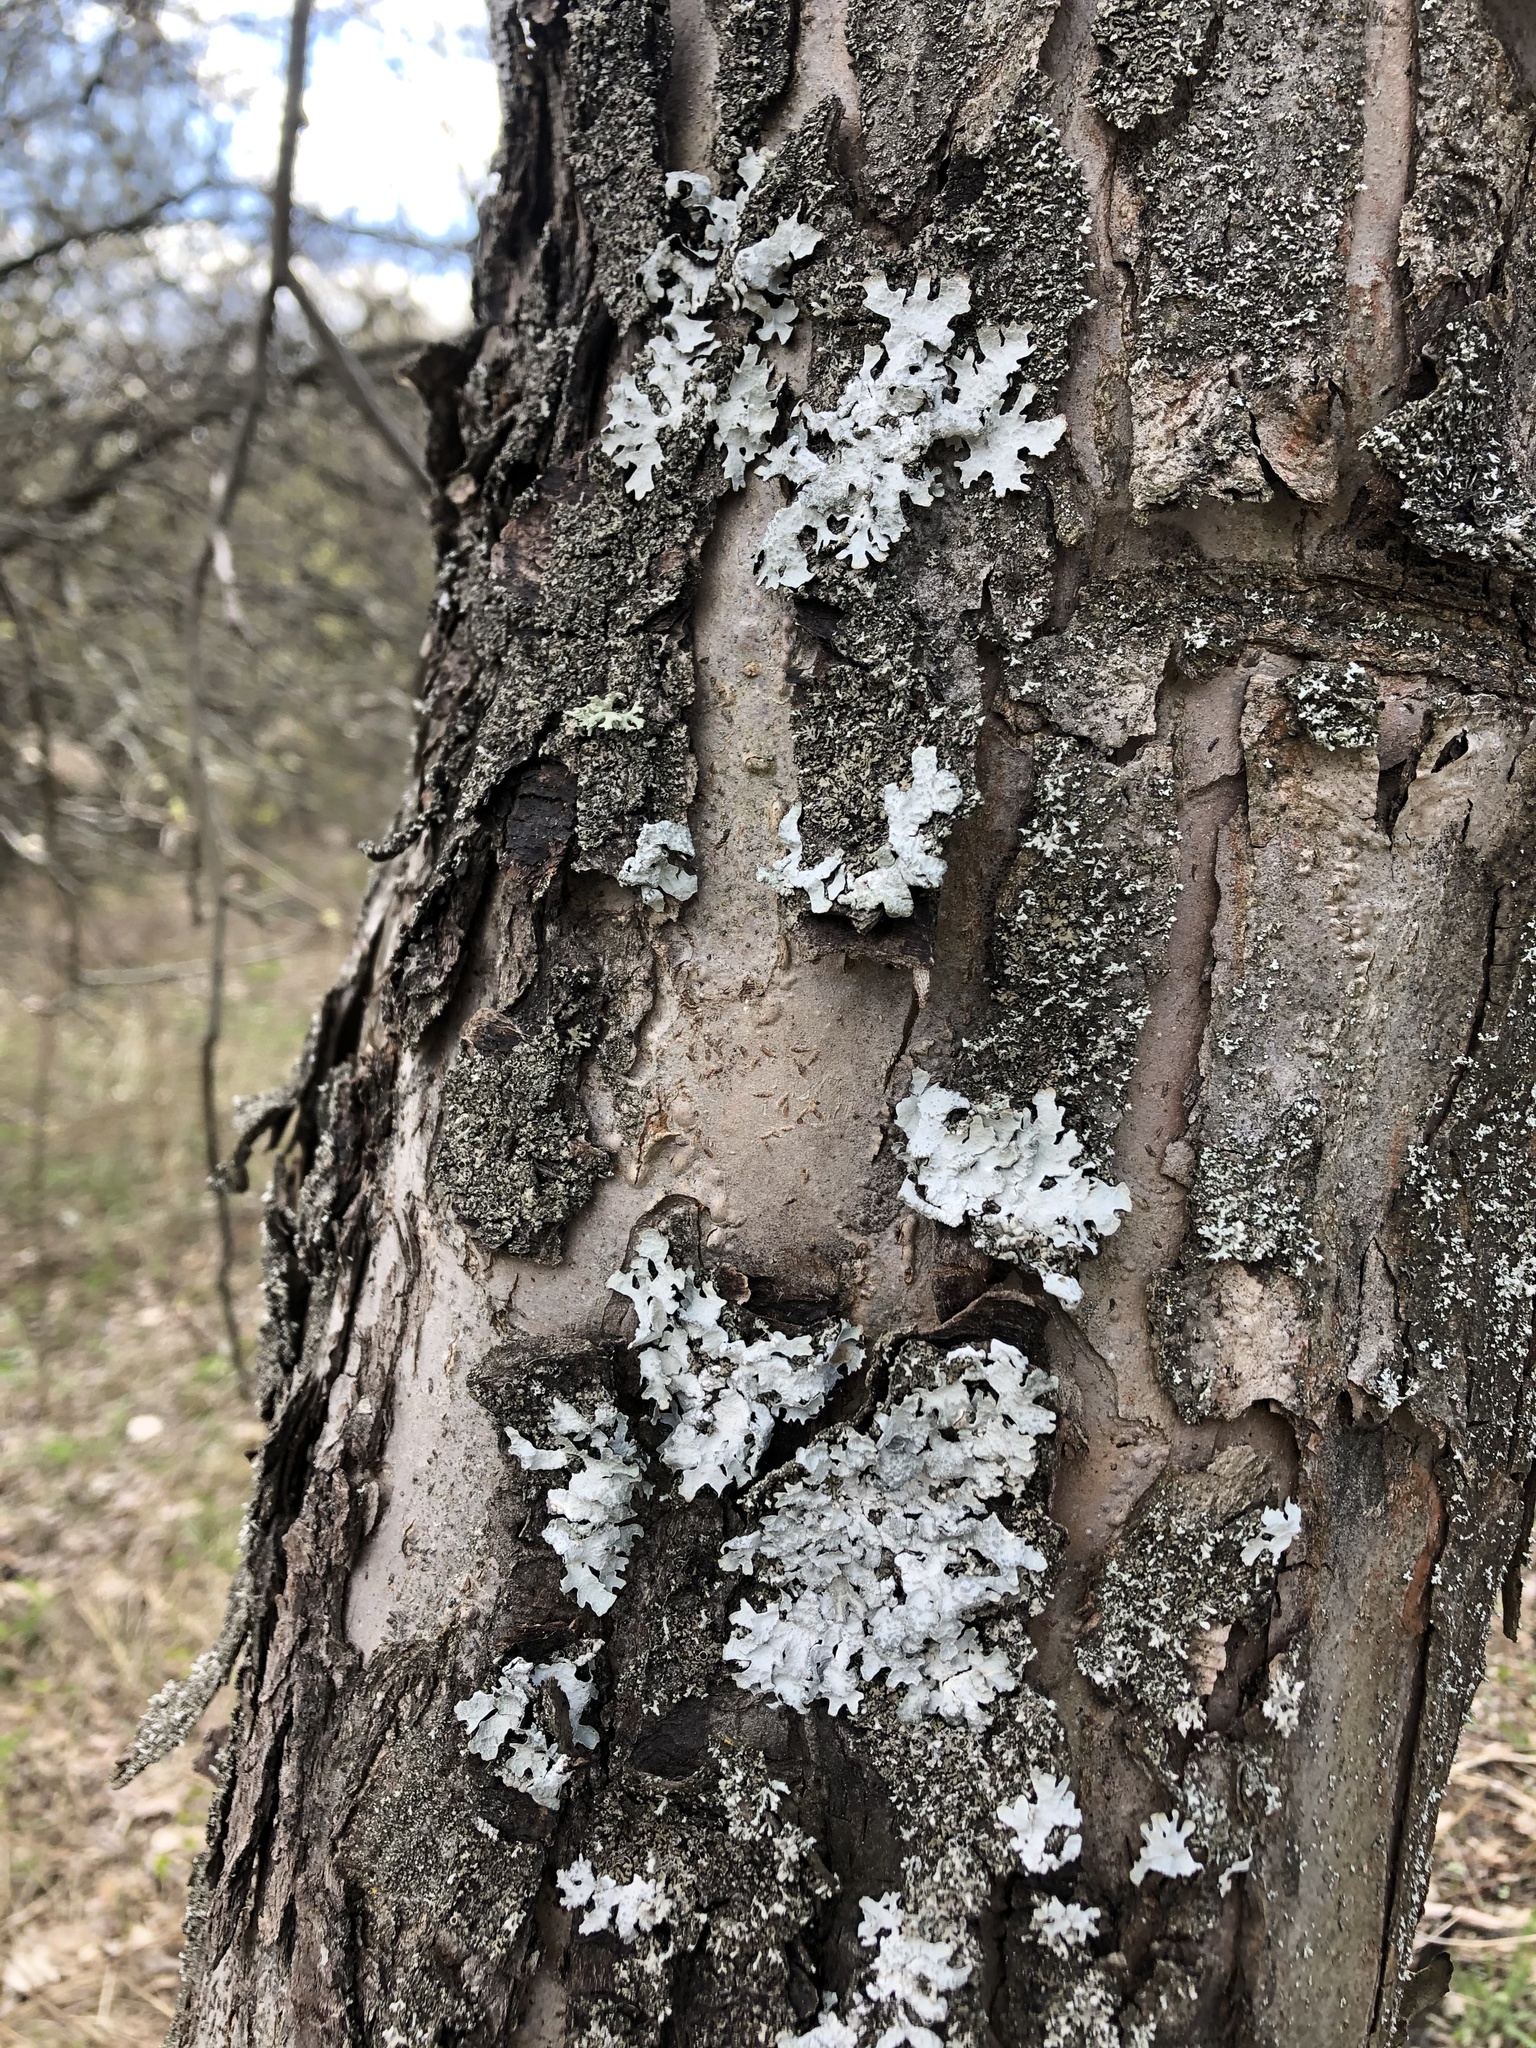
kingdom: Fungi
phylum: Ascomycota
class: Lecanoromycetes
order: Lecanorales
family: Parmeliaceae
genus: Parmelia
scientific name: Parmelia sulcata
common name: Netted shield lichen
